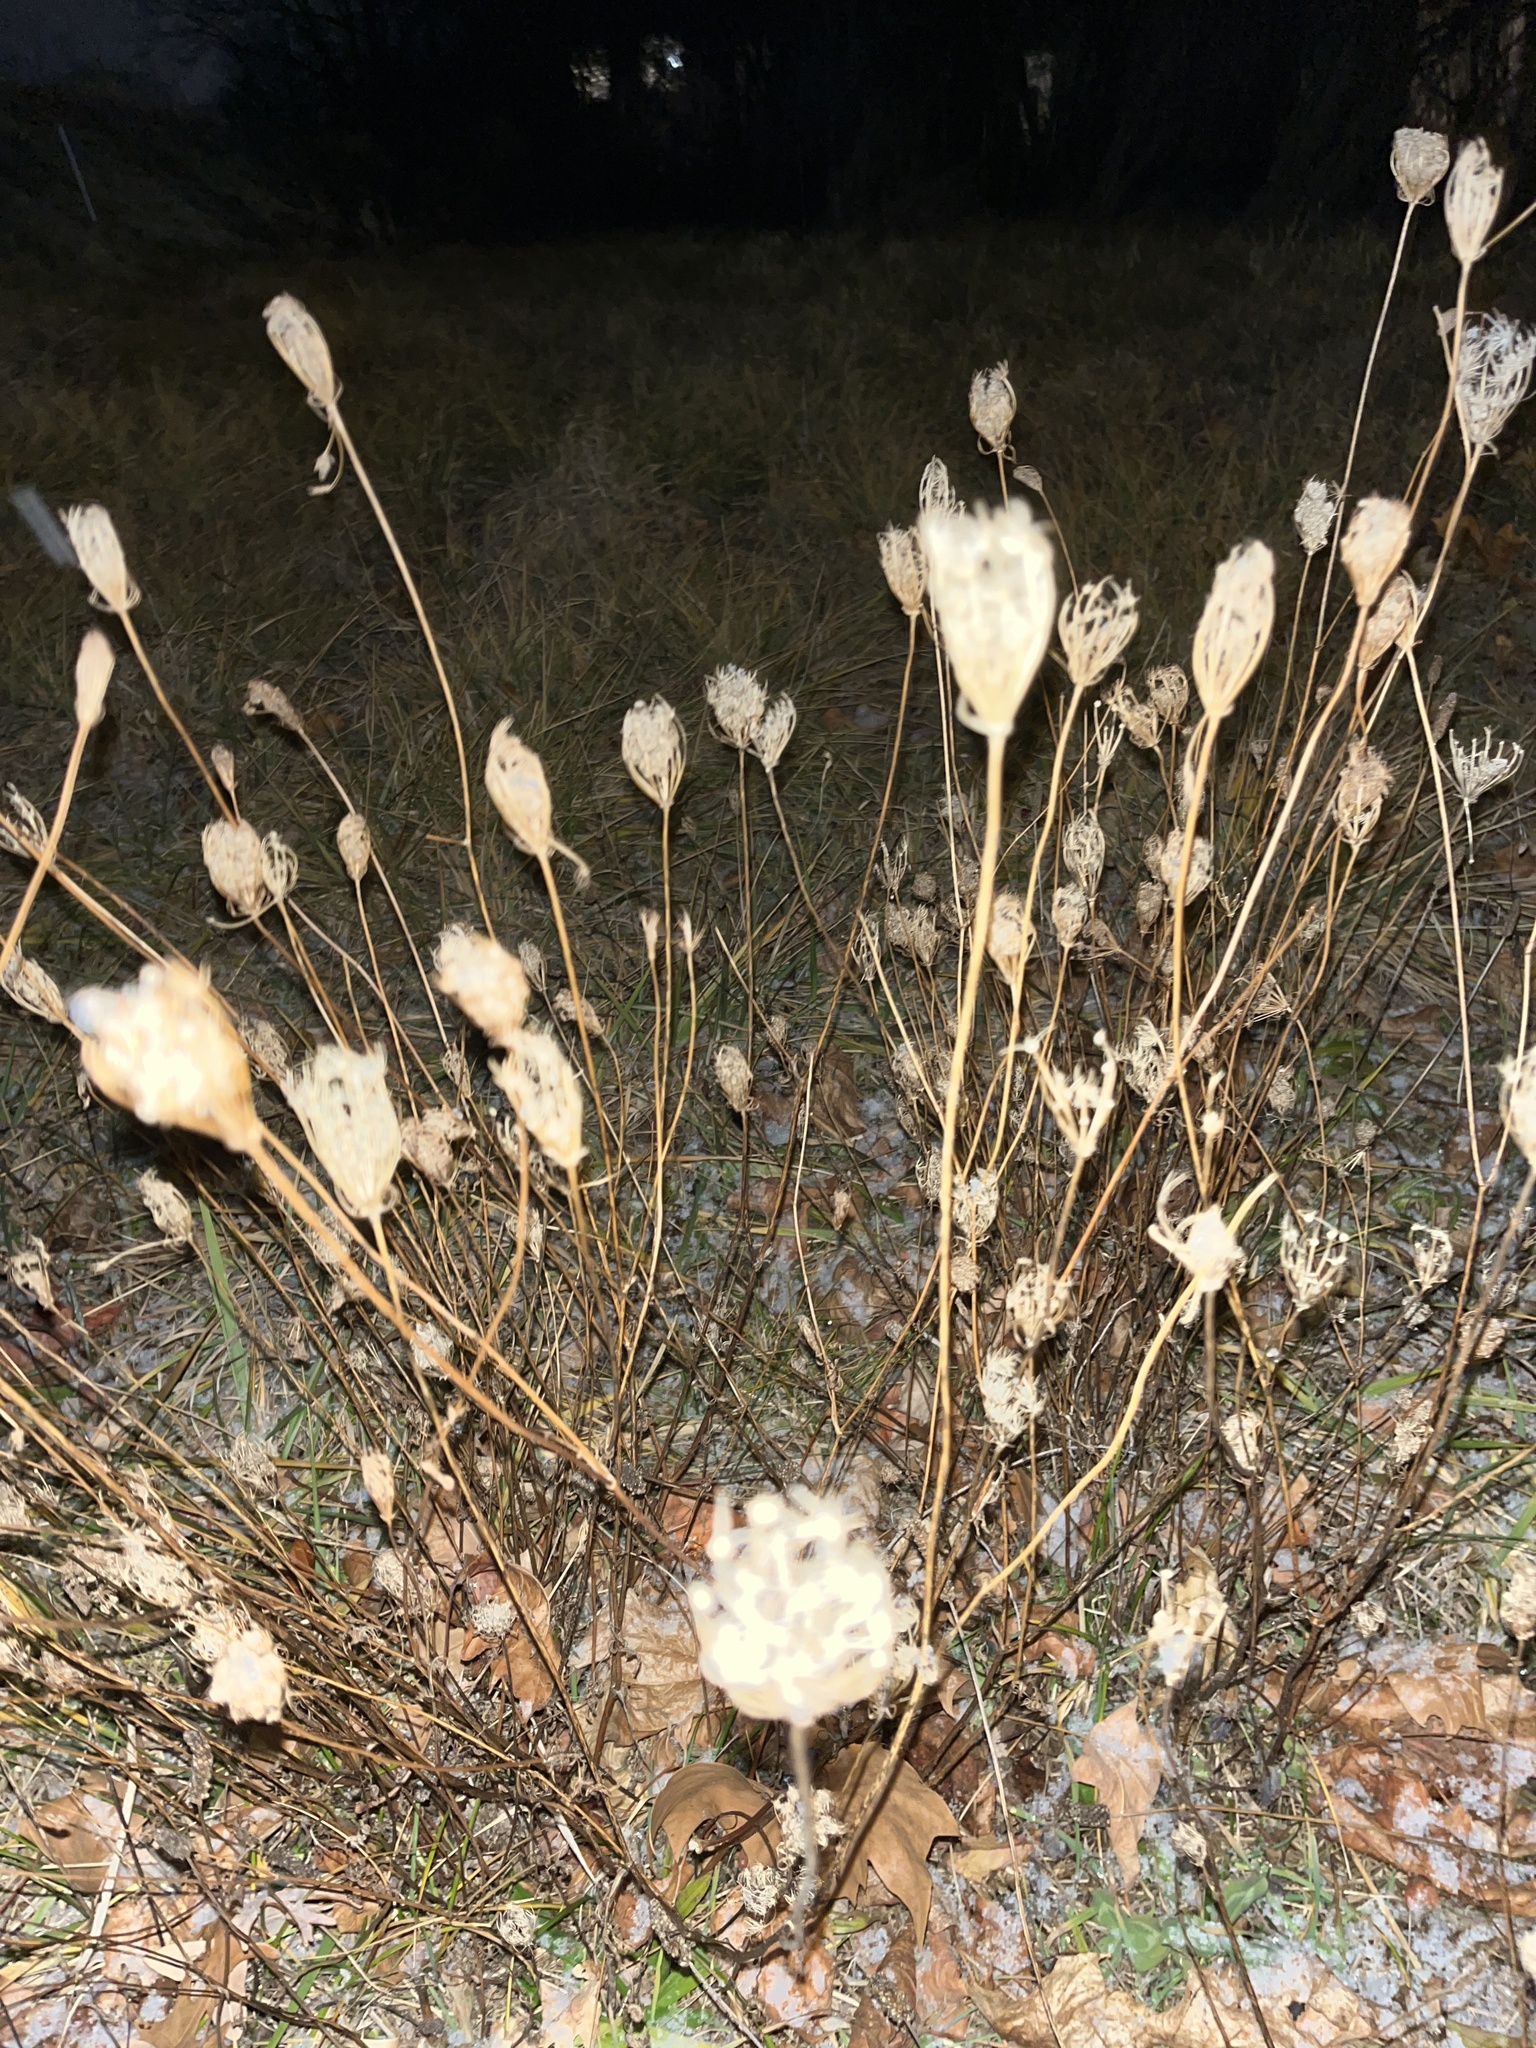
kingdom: Plantae
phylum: Tracheophyta
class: Magnoliopsida
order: Apiales
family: Apiaceae
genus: Daucus
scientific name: Daucus carota
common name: Wild carrot
